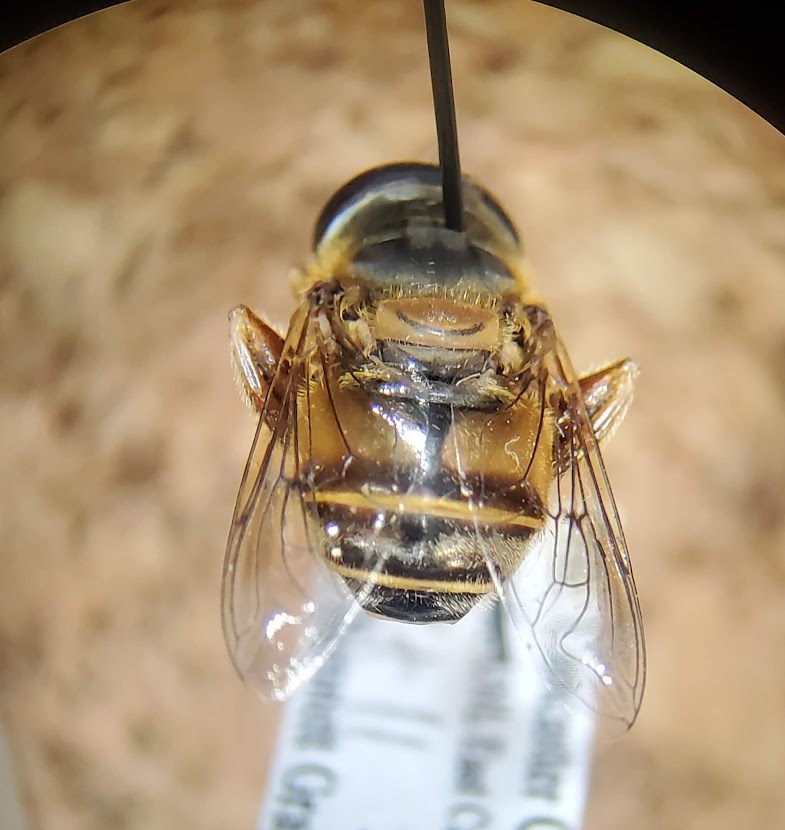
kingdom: Animalia
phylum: Arthropoda
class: Insecta
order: Diptera
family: Syrphidae
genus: Palpada
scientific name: Palpada vinetorum
